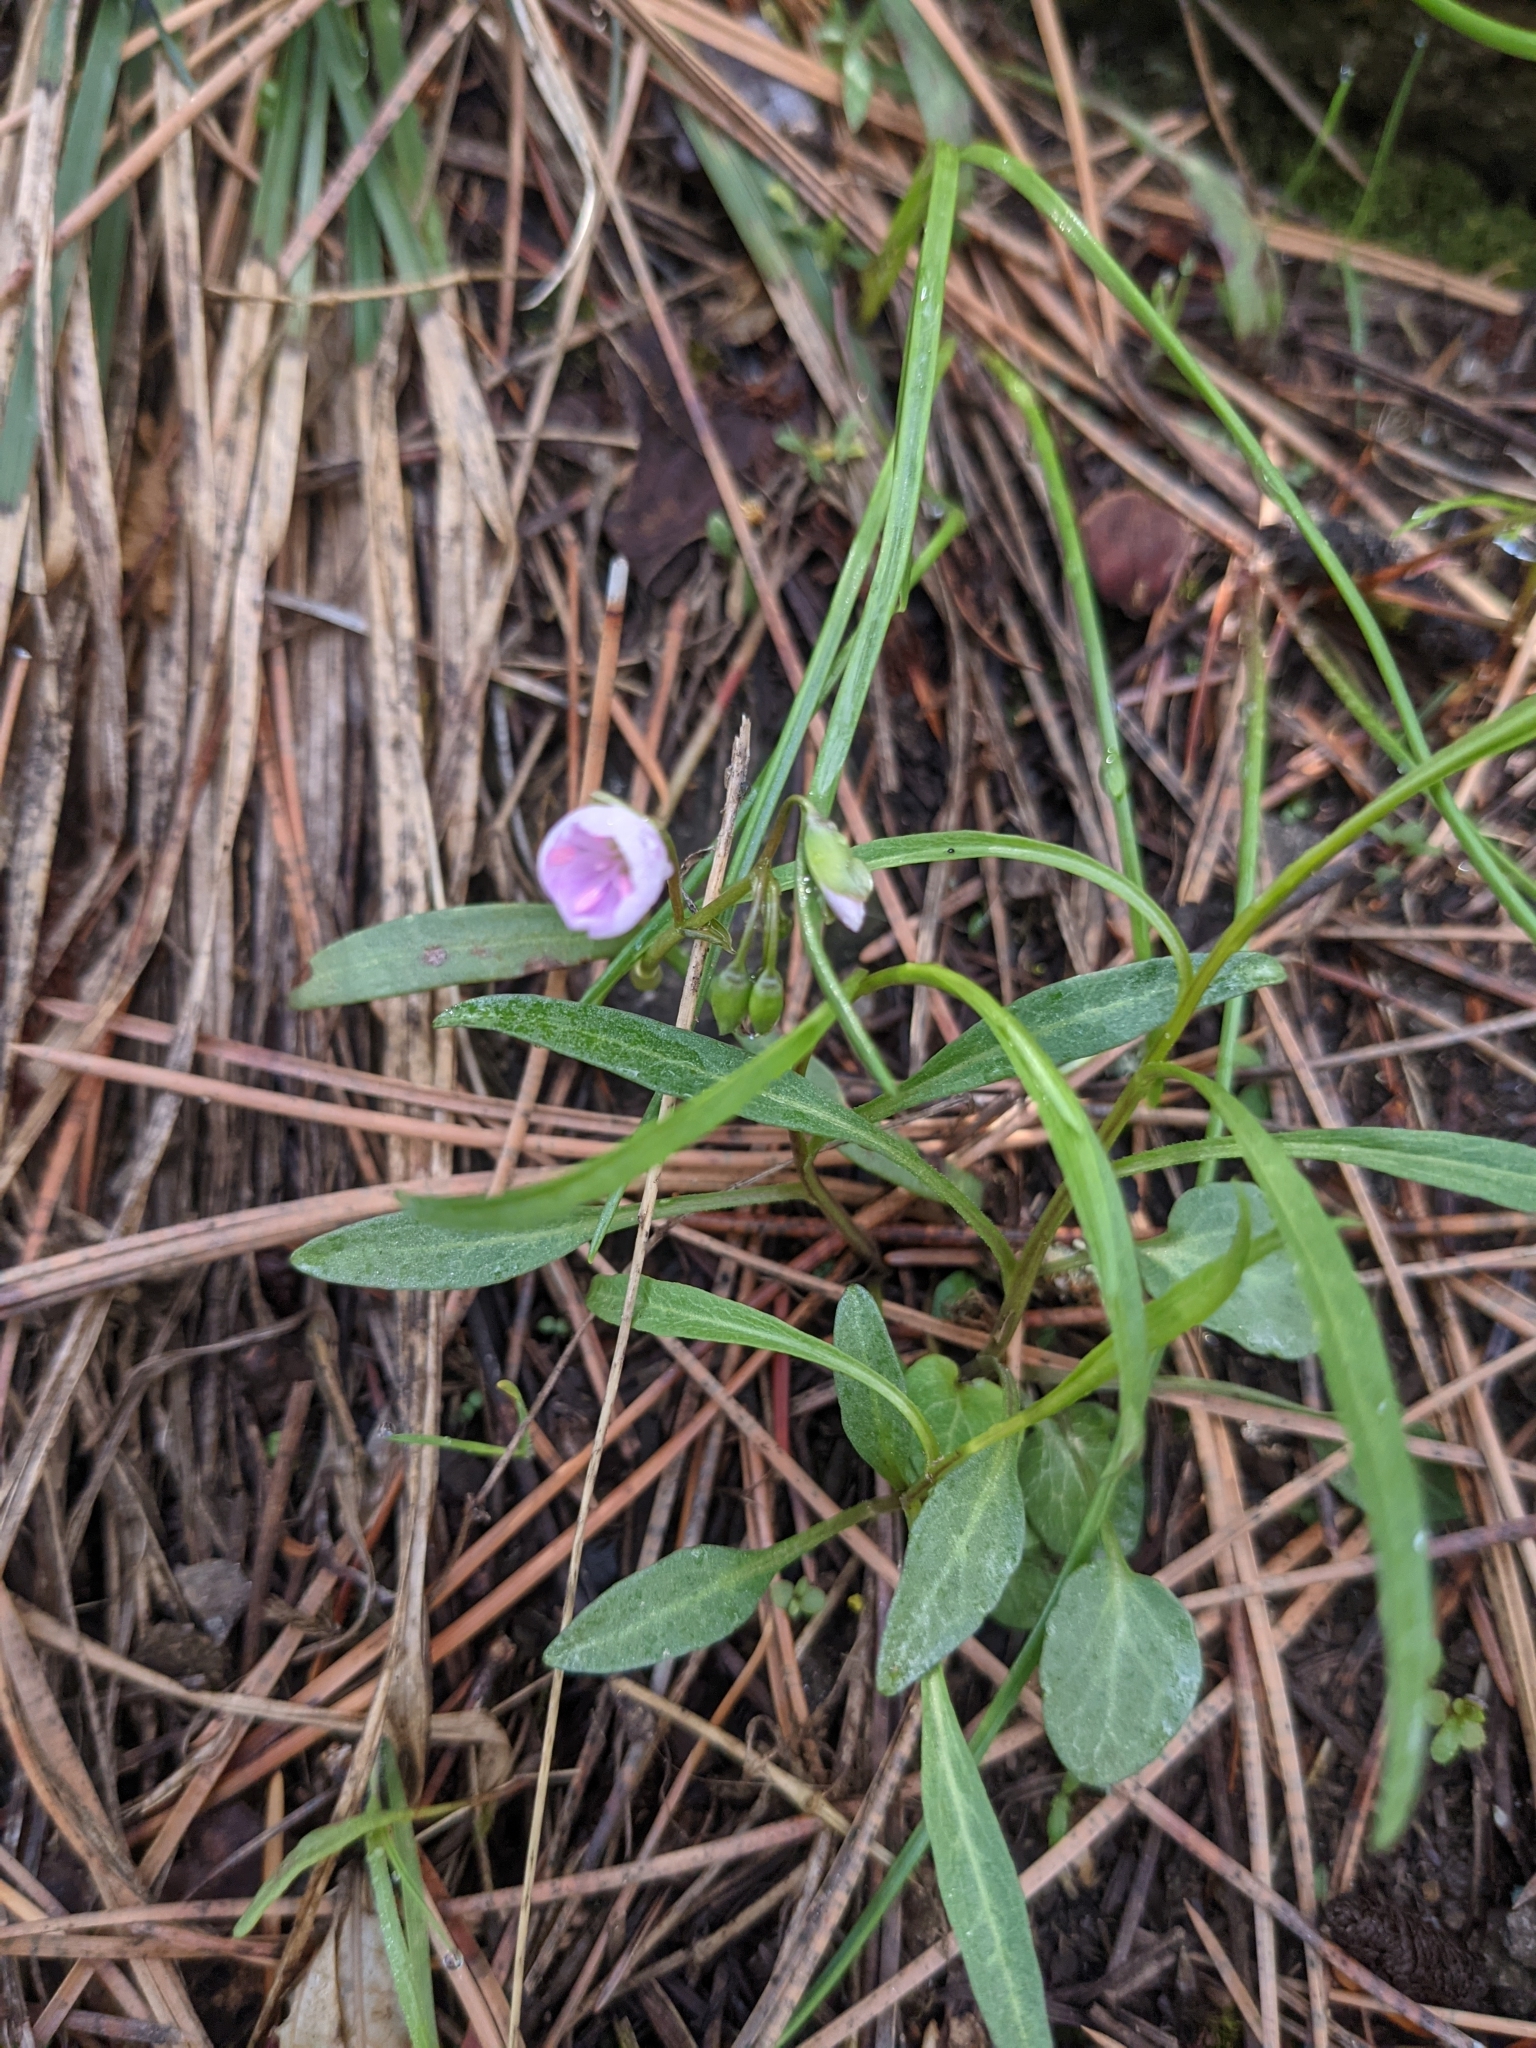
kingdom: Plantae
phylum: Tracheophyta
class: Magnoliopsida
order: Caryophyllales
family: Montiaceae
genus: Claytonia
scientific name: Claytonia rosea
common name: Rocky mountain spring-beauty
